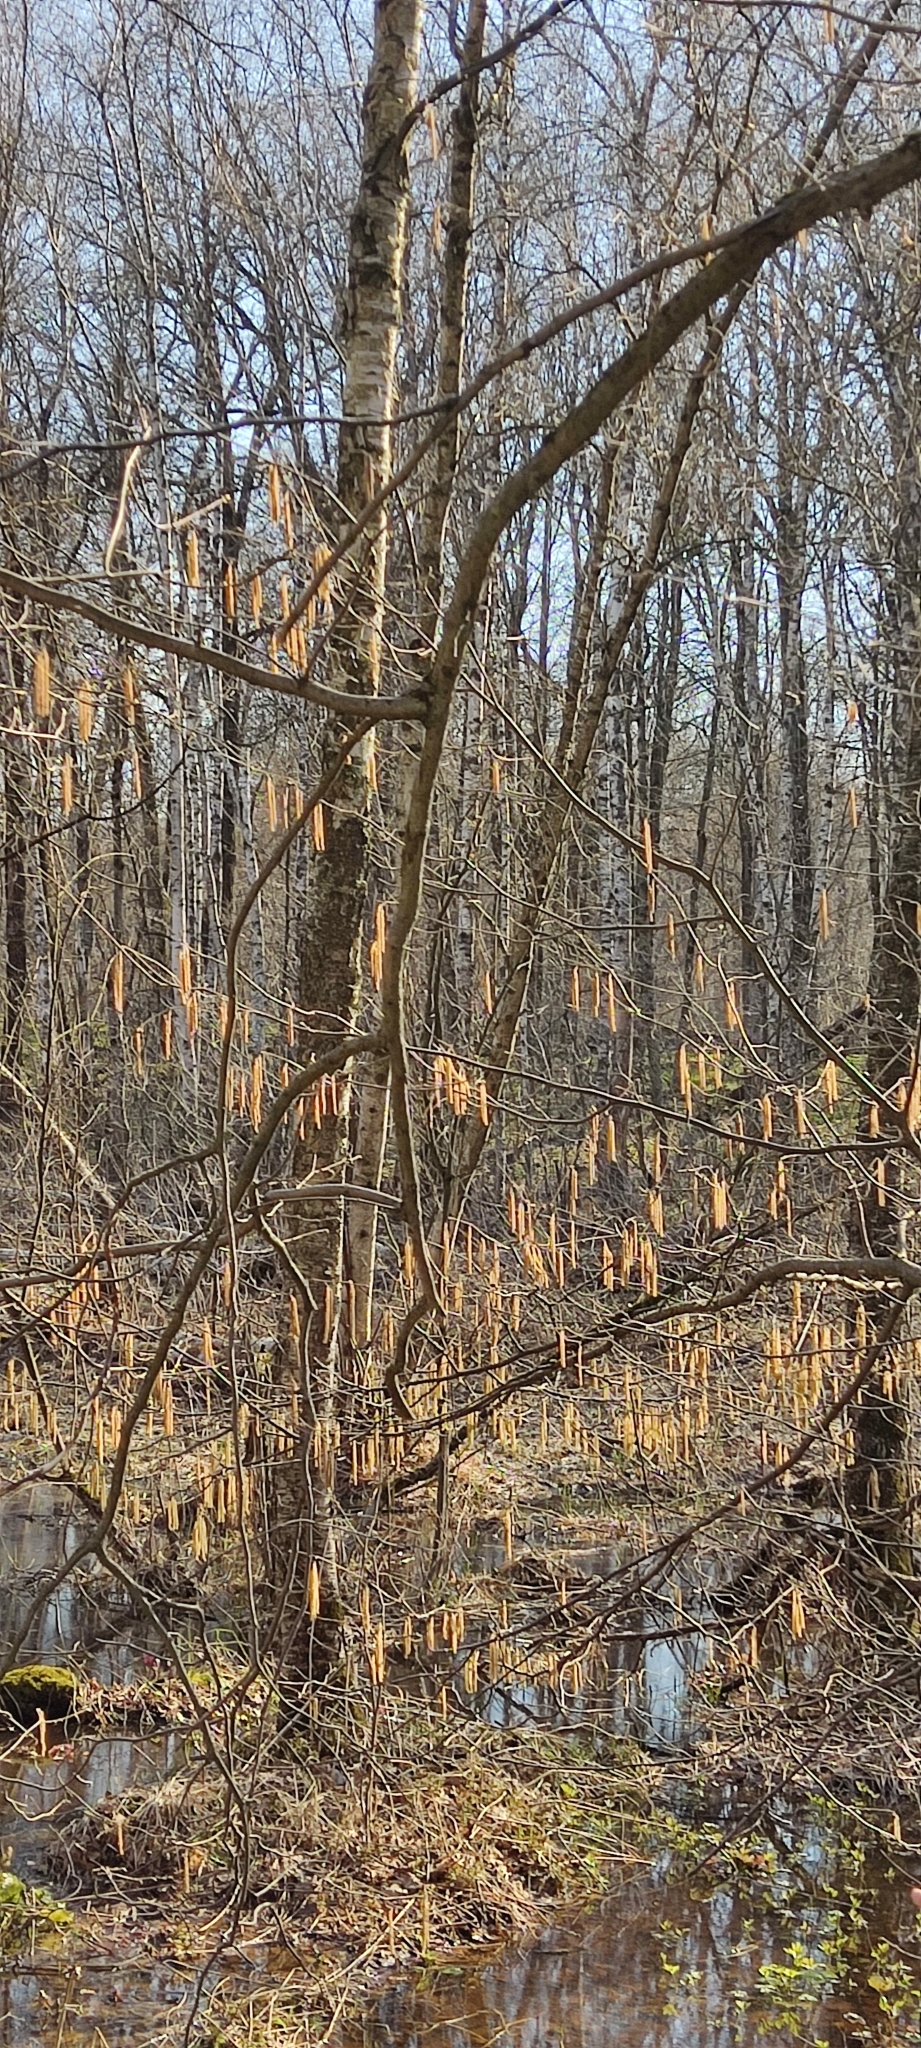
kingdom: Plantae
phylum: Tracheophyta
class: Magnoliopsida
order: Fagales
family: Betulaceae
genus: Corylus
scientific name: Corylus avellana
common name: European hazel
